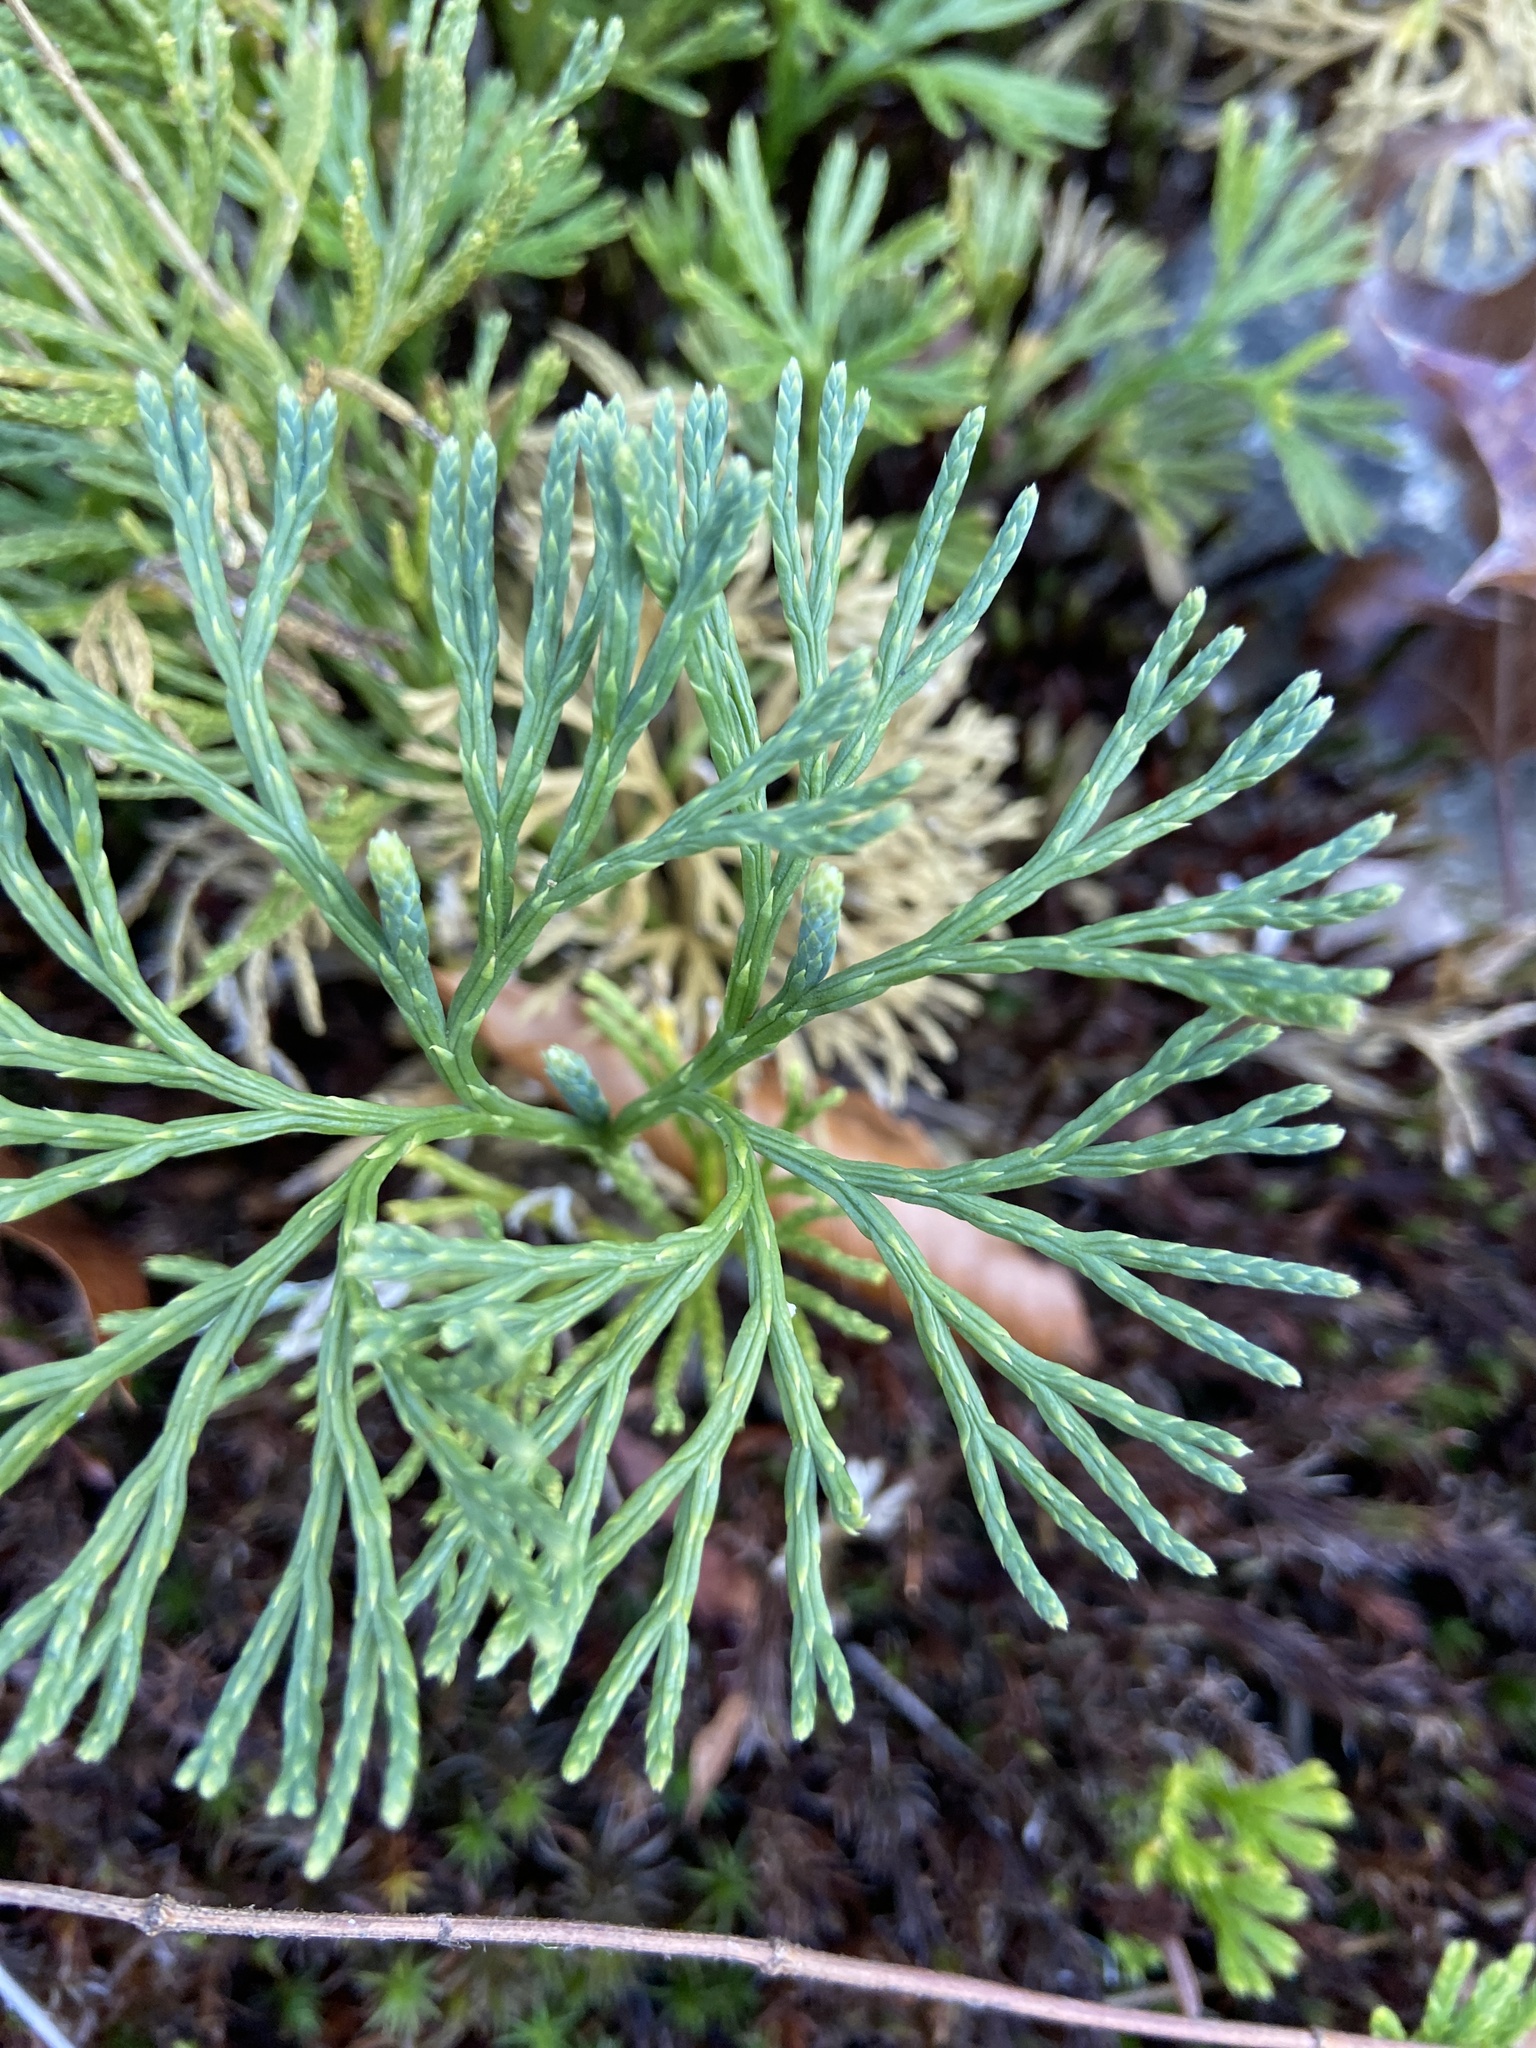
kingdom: Plantae
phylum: Tracheophyta
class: Lycopodiopsida
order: Lycopodiales
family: Lycopodiaceae
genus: Diphasiastrum
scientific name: Diphasiastrum tristachyum
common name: Blue ground-cedar
